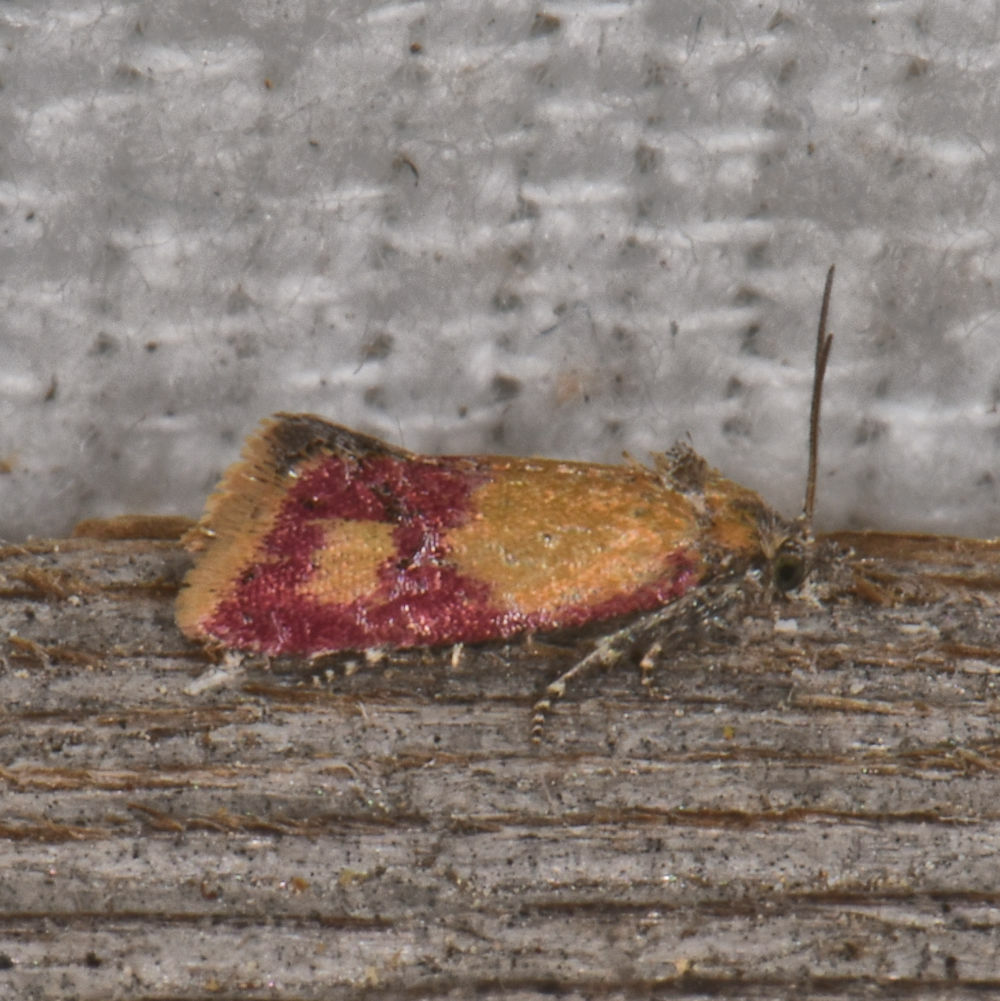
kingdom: Animalia
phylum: Arthropoda
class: Insecta
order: Lepidoptera
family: Tortricidae
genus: Conchylis
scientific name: Conchylis oenotherana
